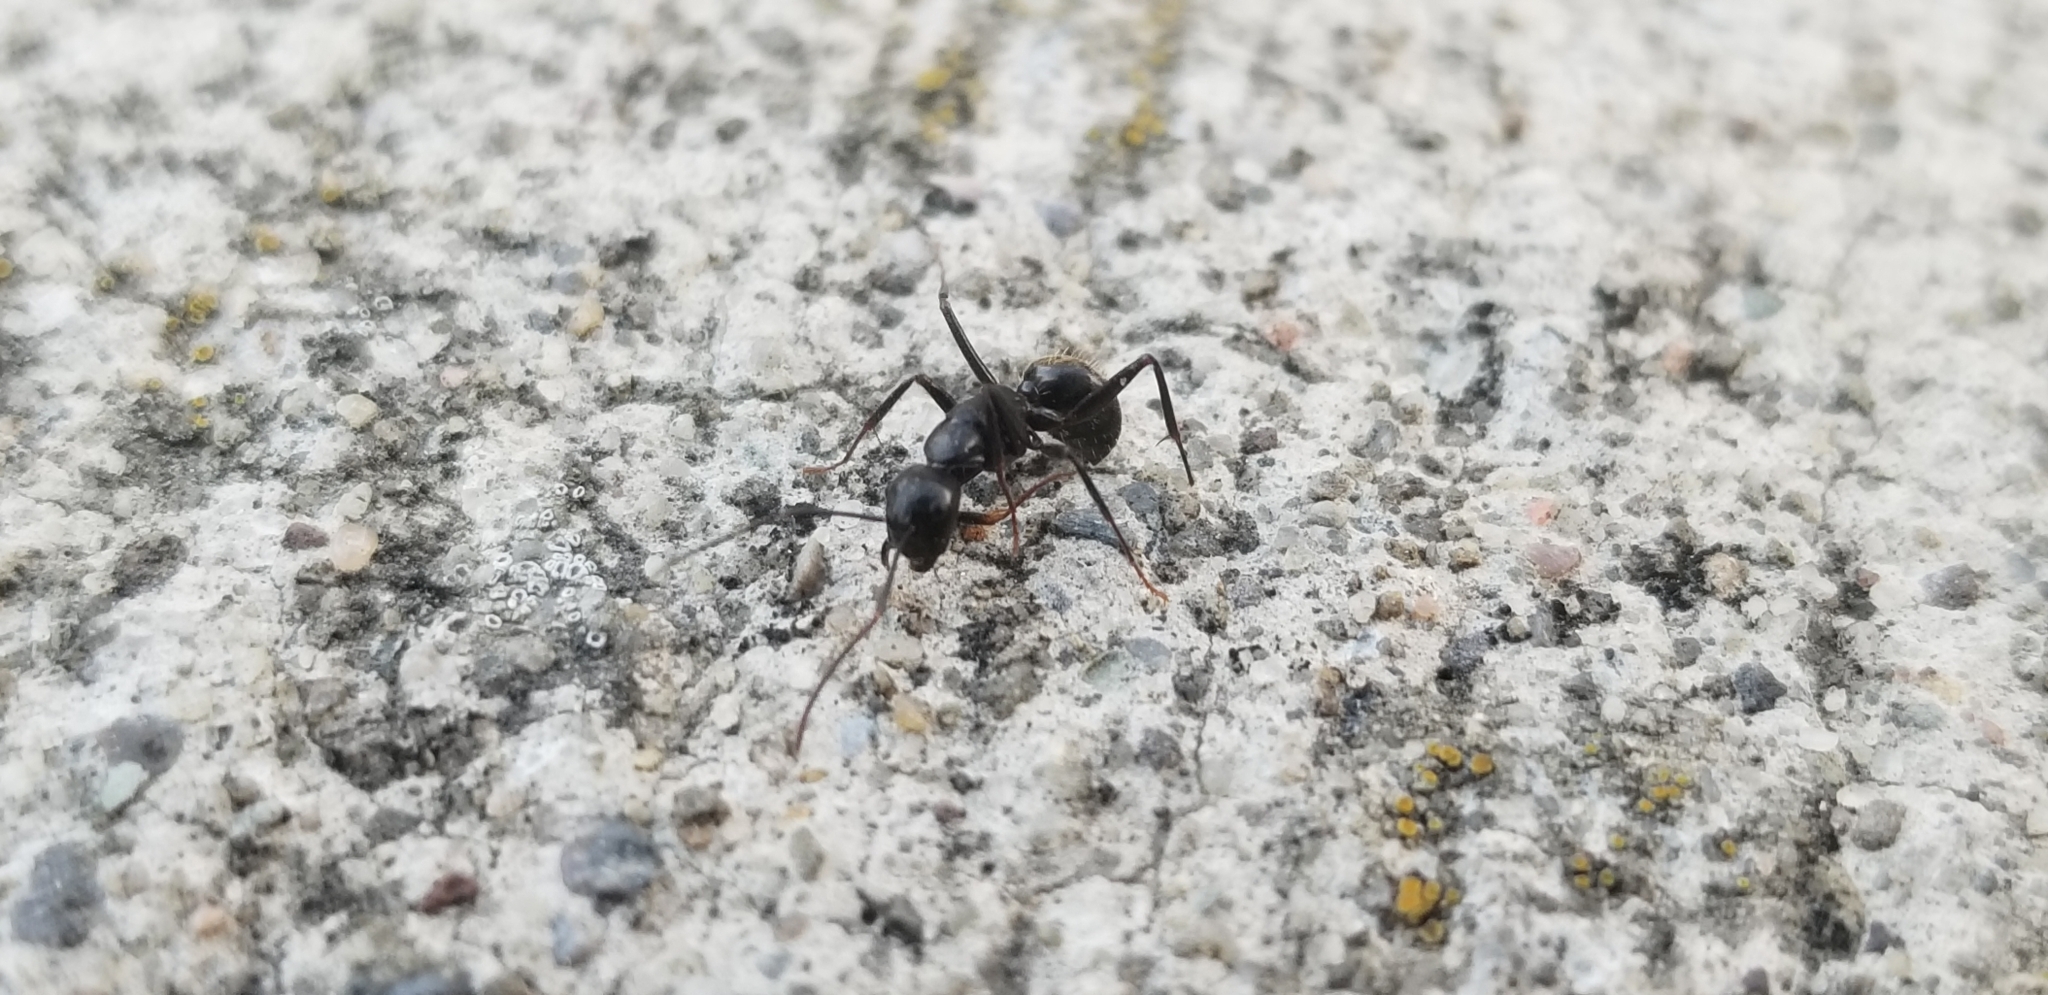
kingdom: Animalia
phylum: Arthropoda
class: Insecta
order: Hymenoptera
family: Formicidae
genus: Camponotus
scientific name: Camponotus pennsylvanicus
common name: Black carpenter ant
